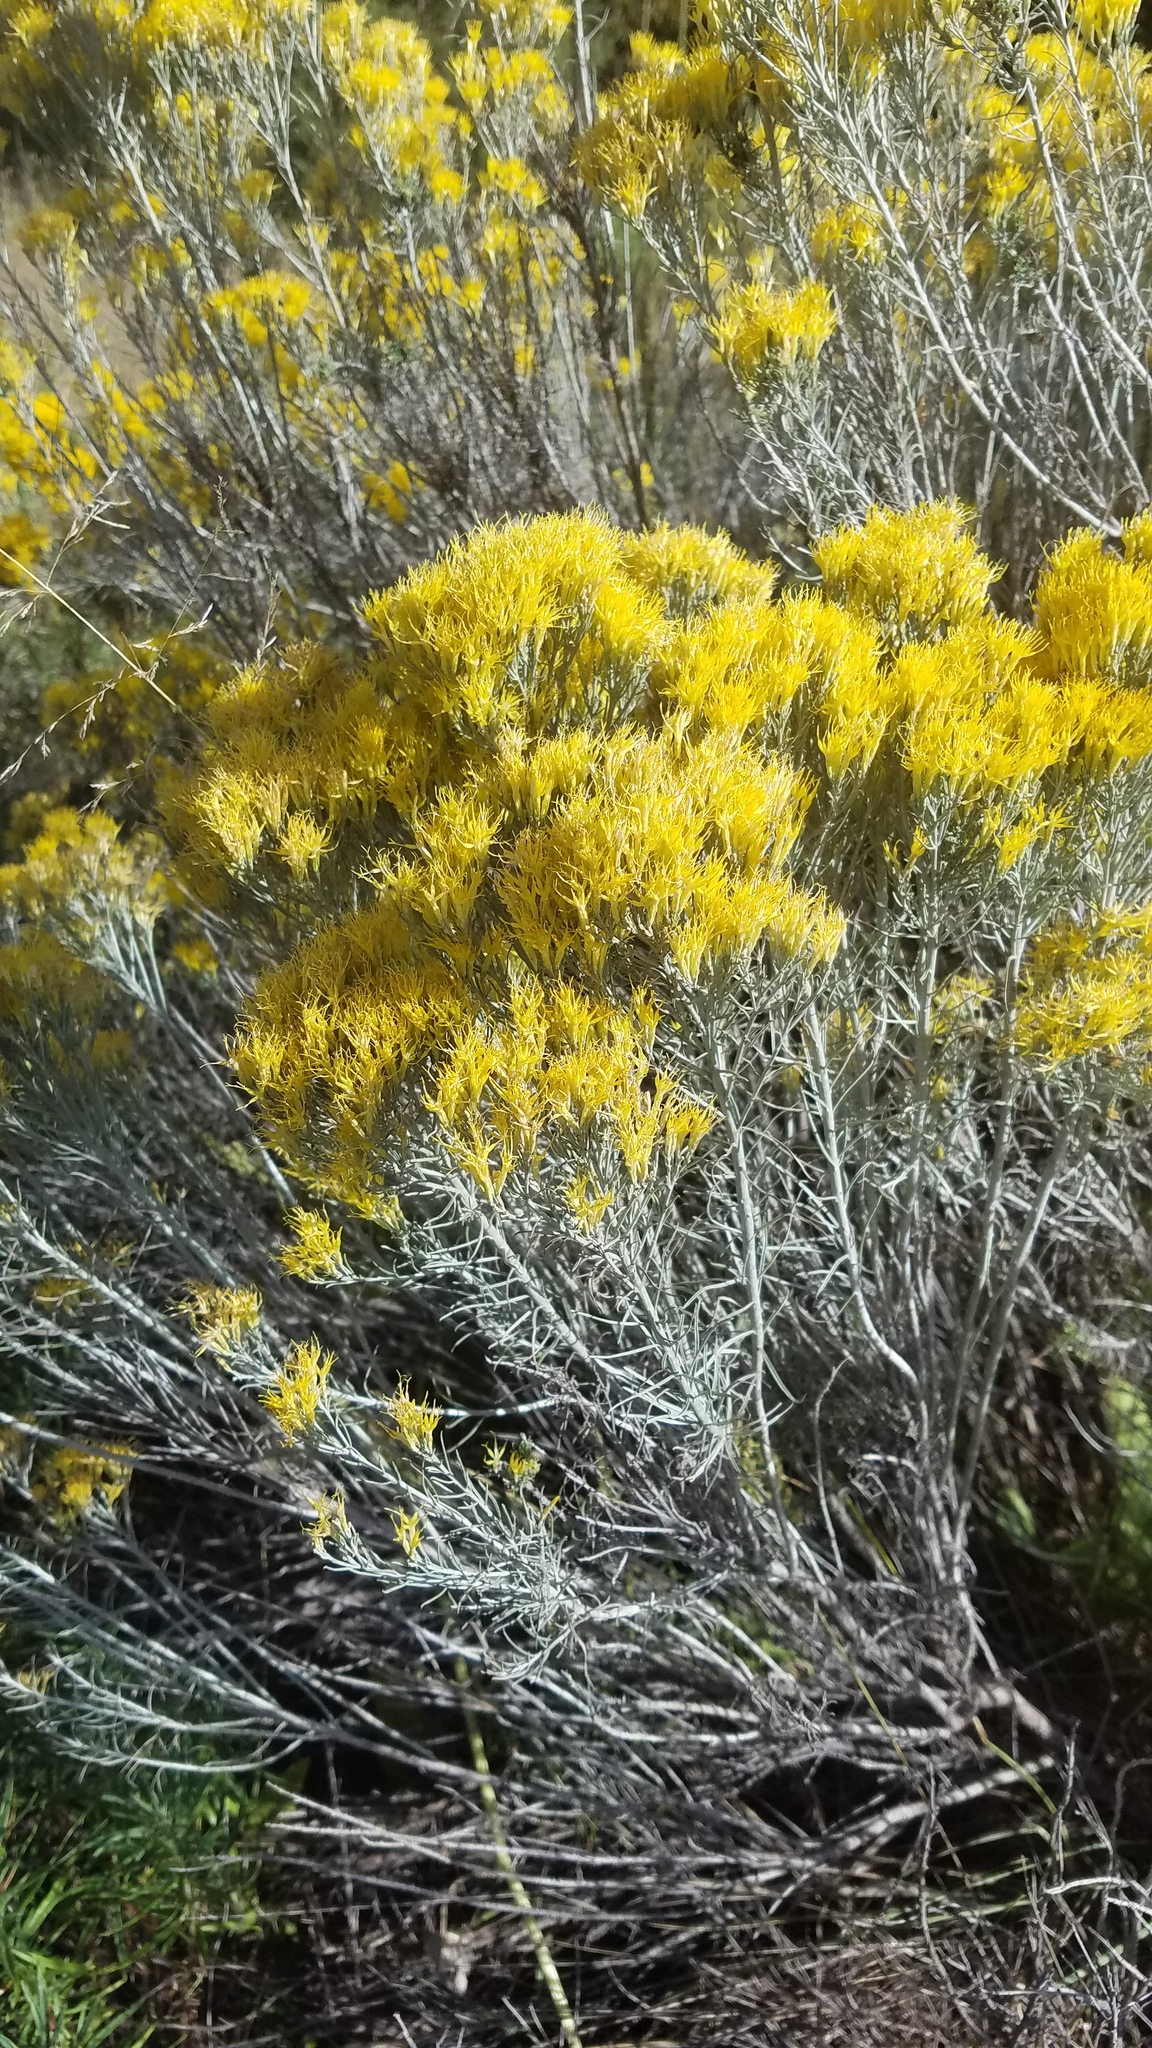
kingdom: Plantae
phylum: Tracheophyta
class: Magnoliopsida
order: Asterales
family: Asteraceae
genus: Ericameria
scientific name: Ericameria nauseosa
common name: Rubber rabbitbrush
